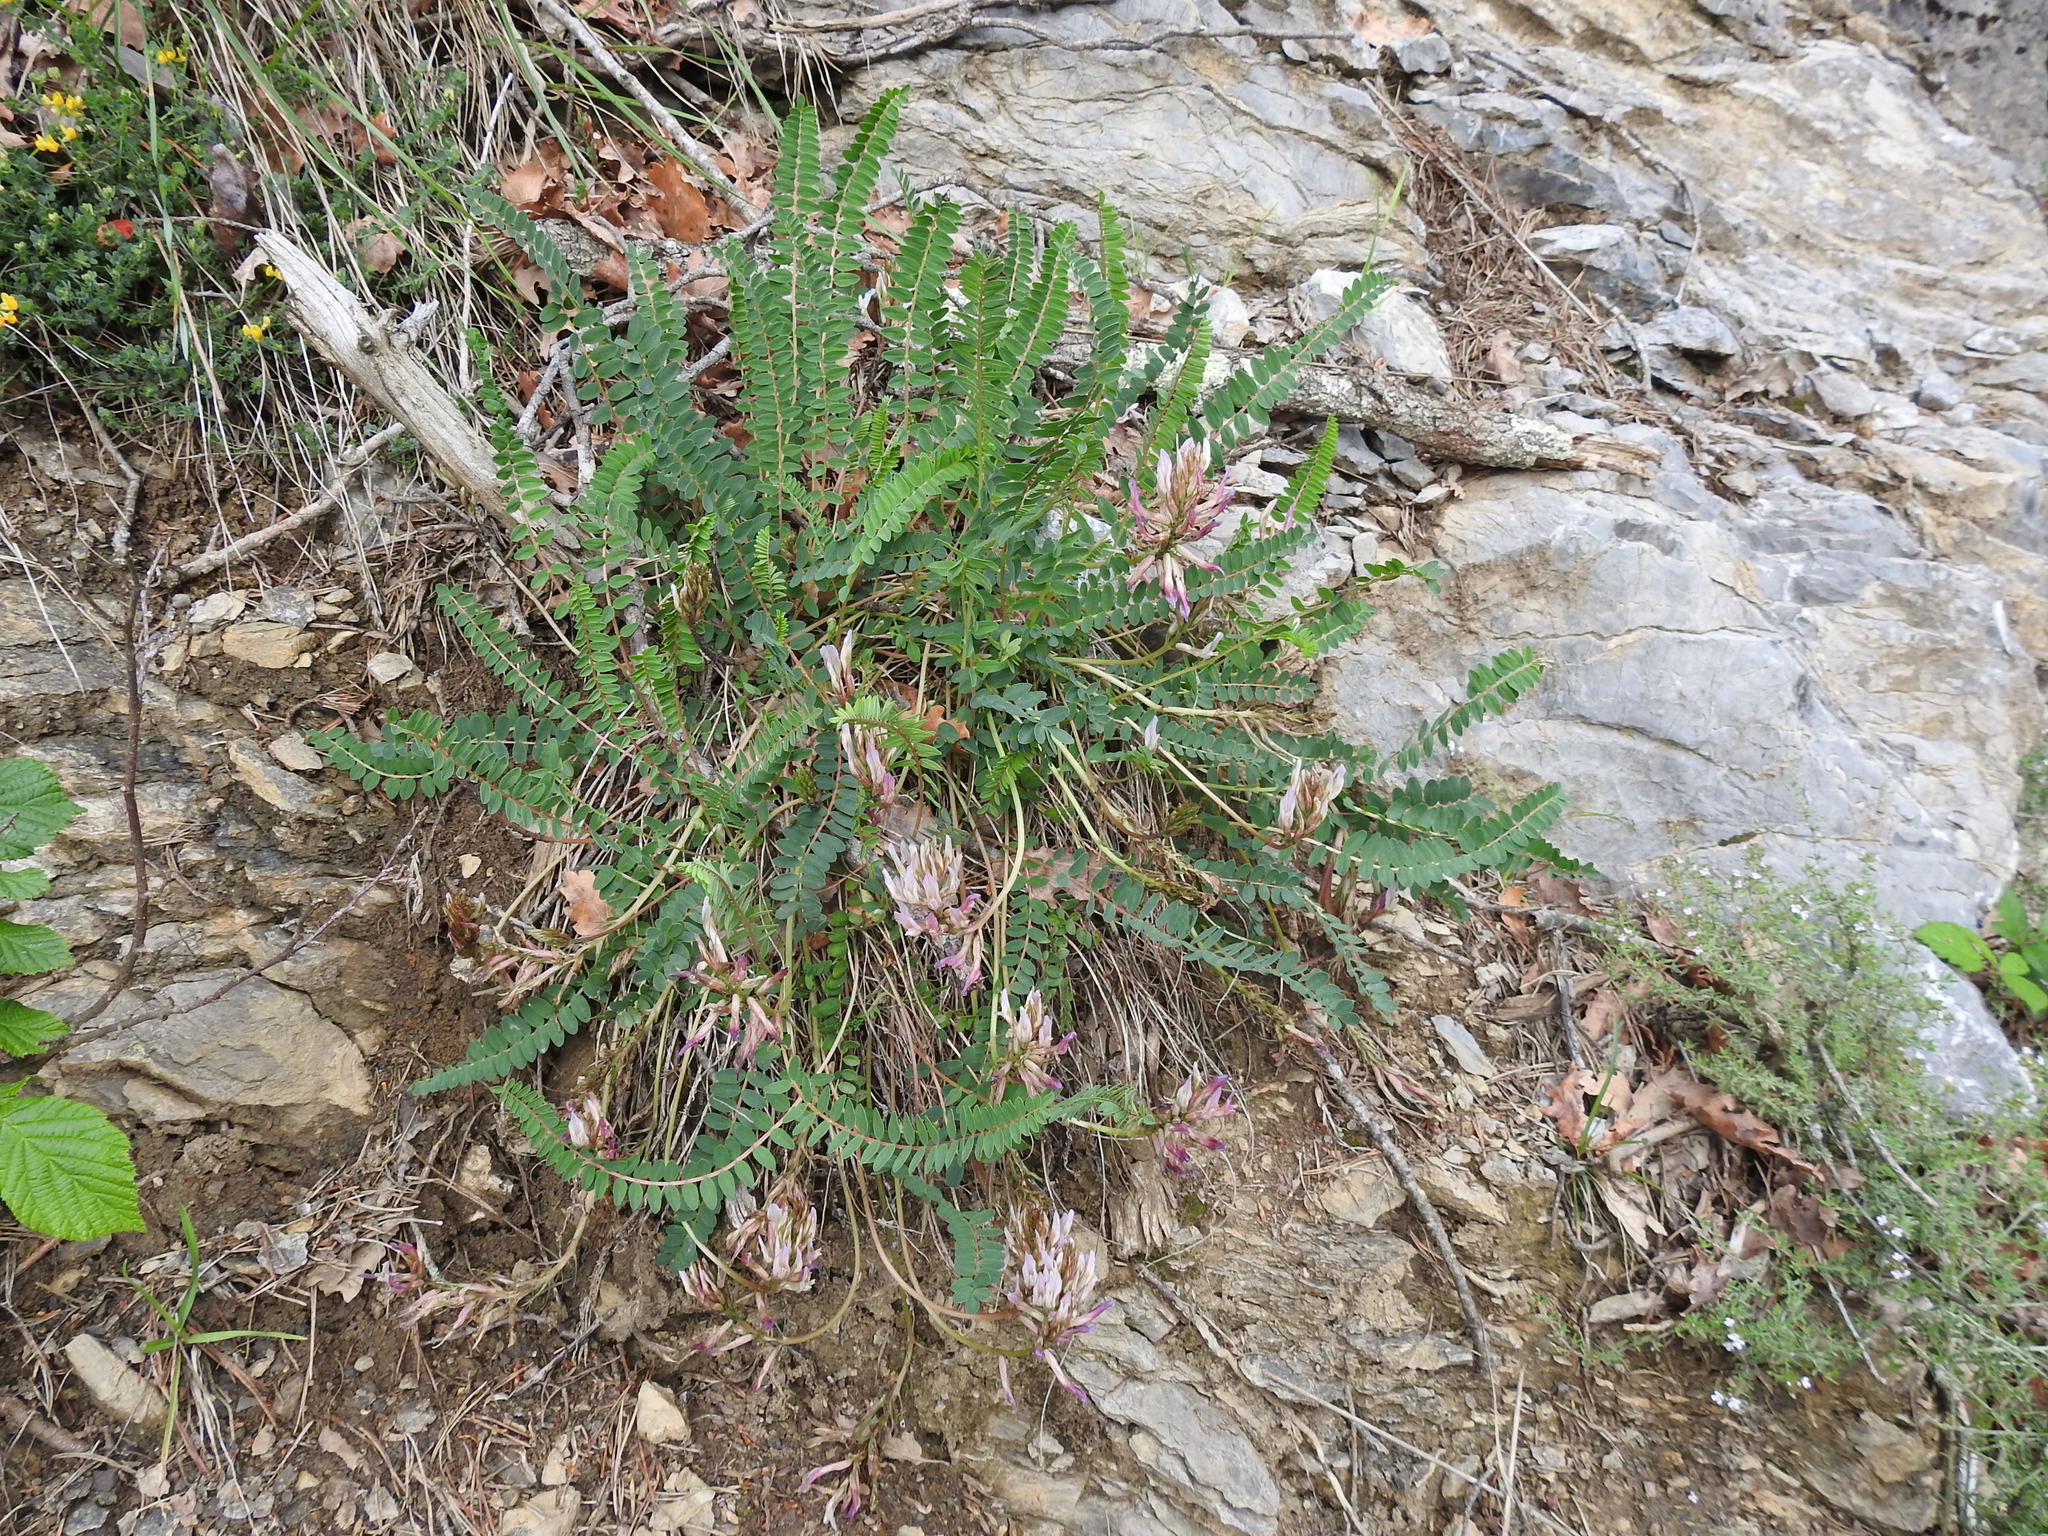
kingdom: Plantae
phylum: Tracheophyta
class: Magnoliopsida
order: Fabales
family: Fabaceae
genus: Astragalus
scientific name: Astragalus monspessulanus
